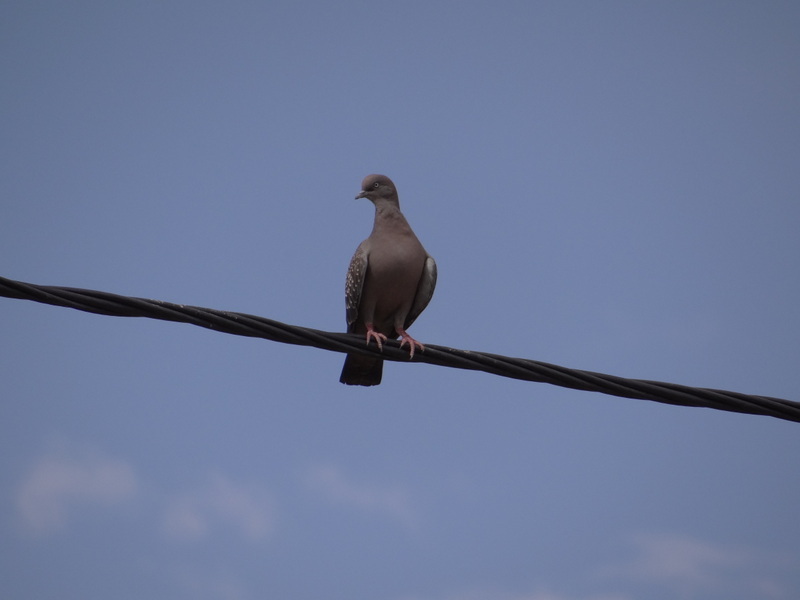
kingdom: Animalia
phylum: Chordata
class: Aves
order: Columbiformes
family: Columbidae
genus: Patagioenas
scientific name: Patagioenas maculosa
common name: Spot-winged pigeon
